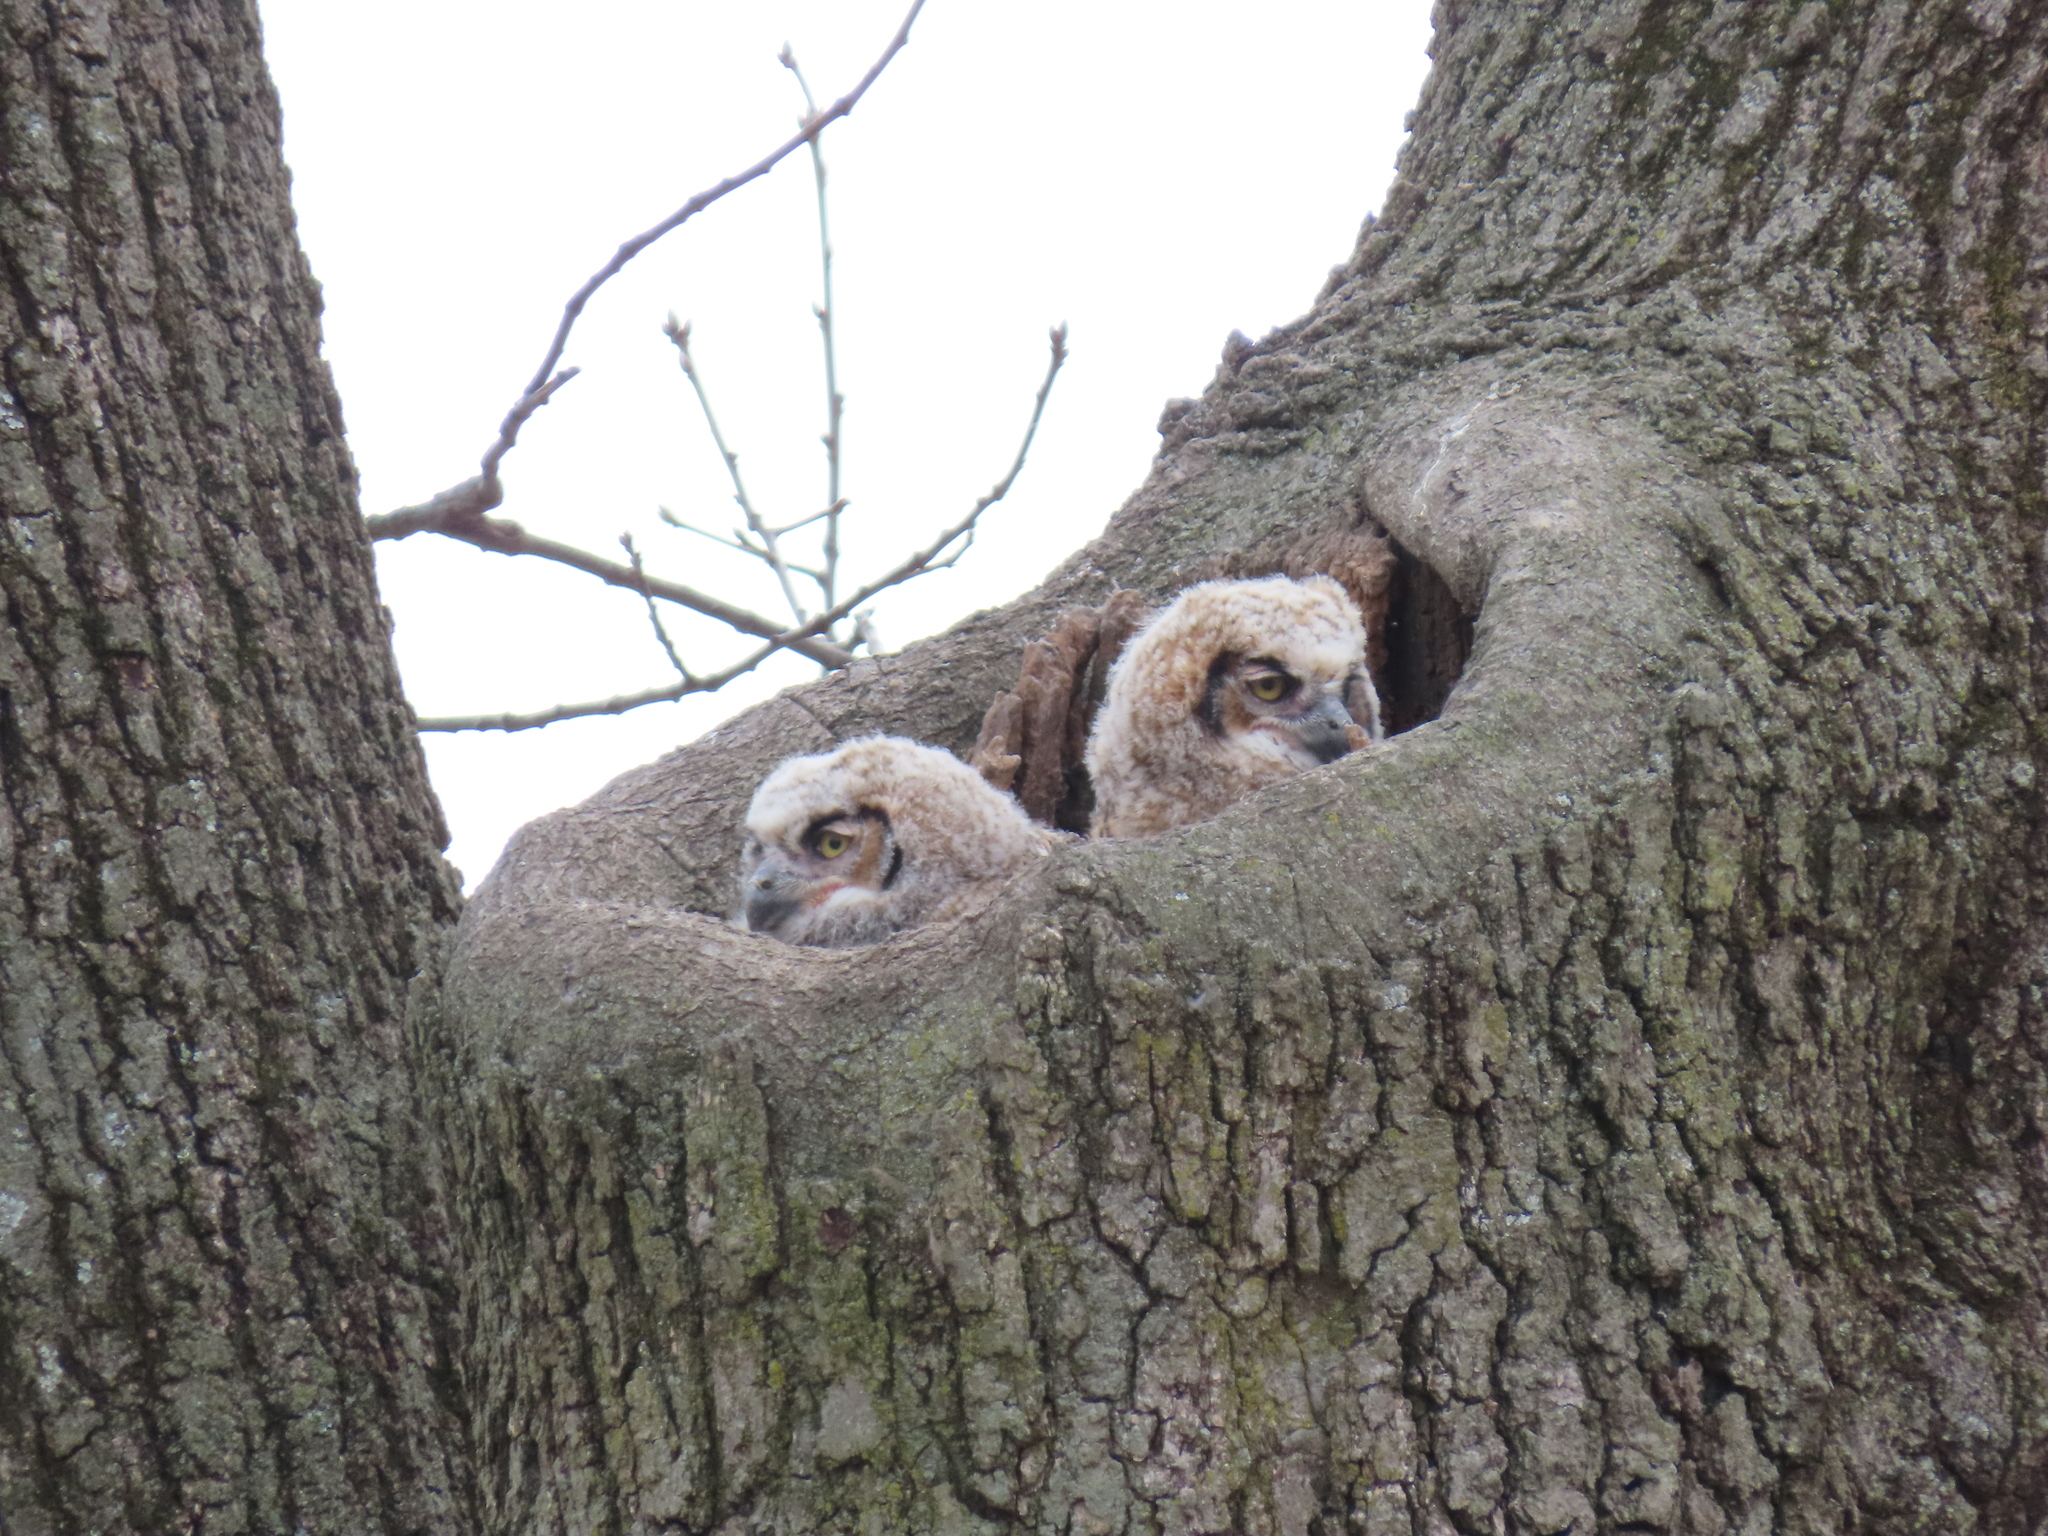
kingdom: Animalia
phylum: Chordata
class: Aves
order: Strigiformes
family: Strigidae
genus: Bubo
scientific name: Bubo virginianus
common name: Great horned owl
